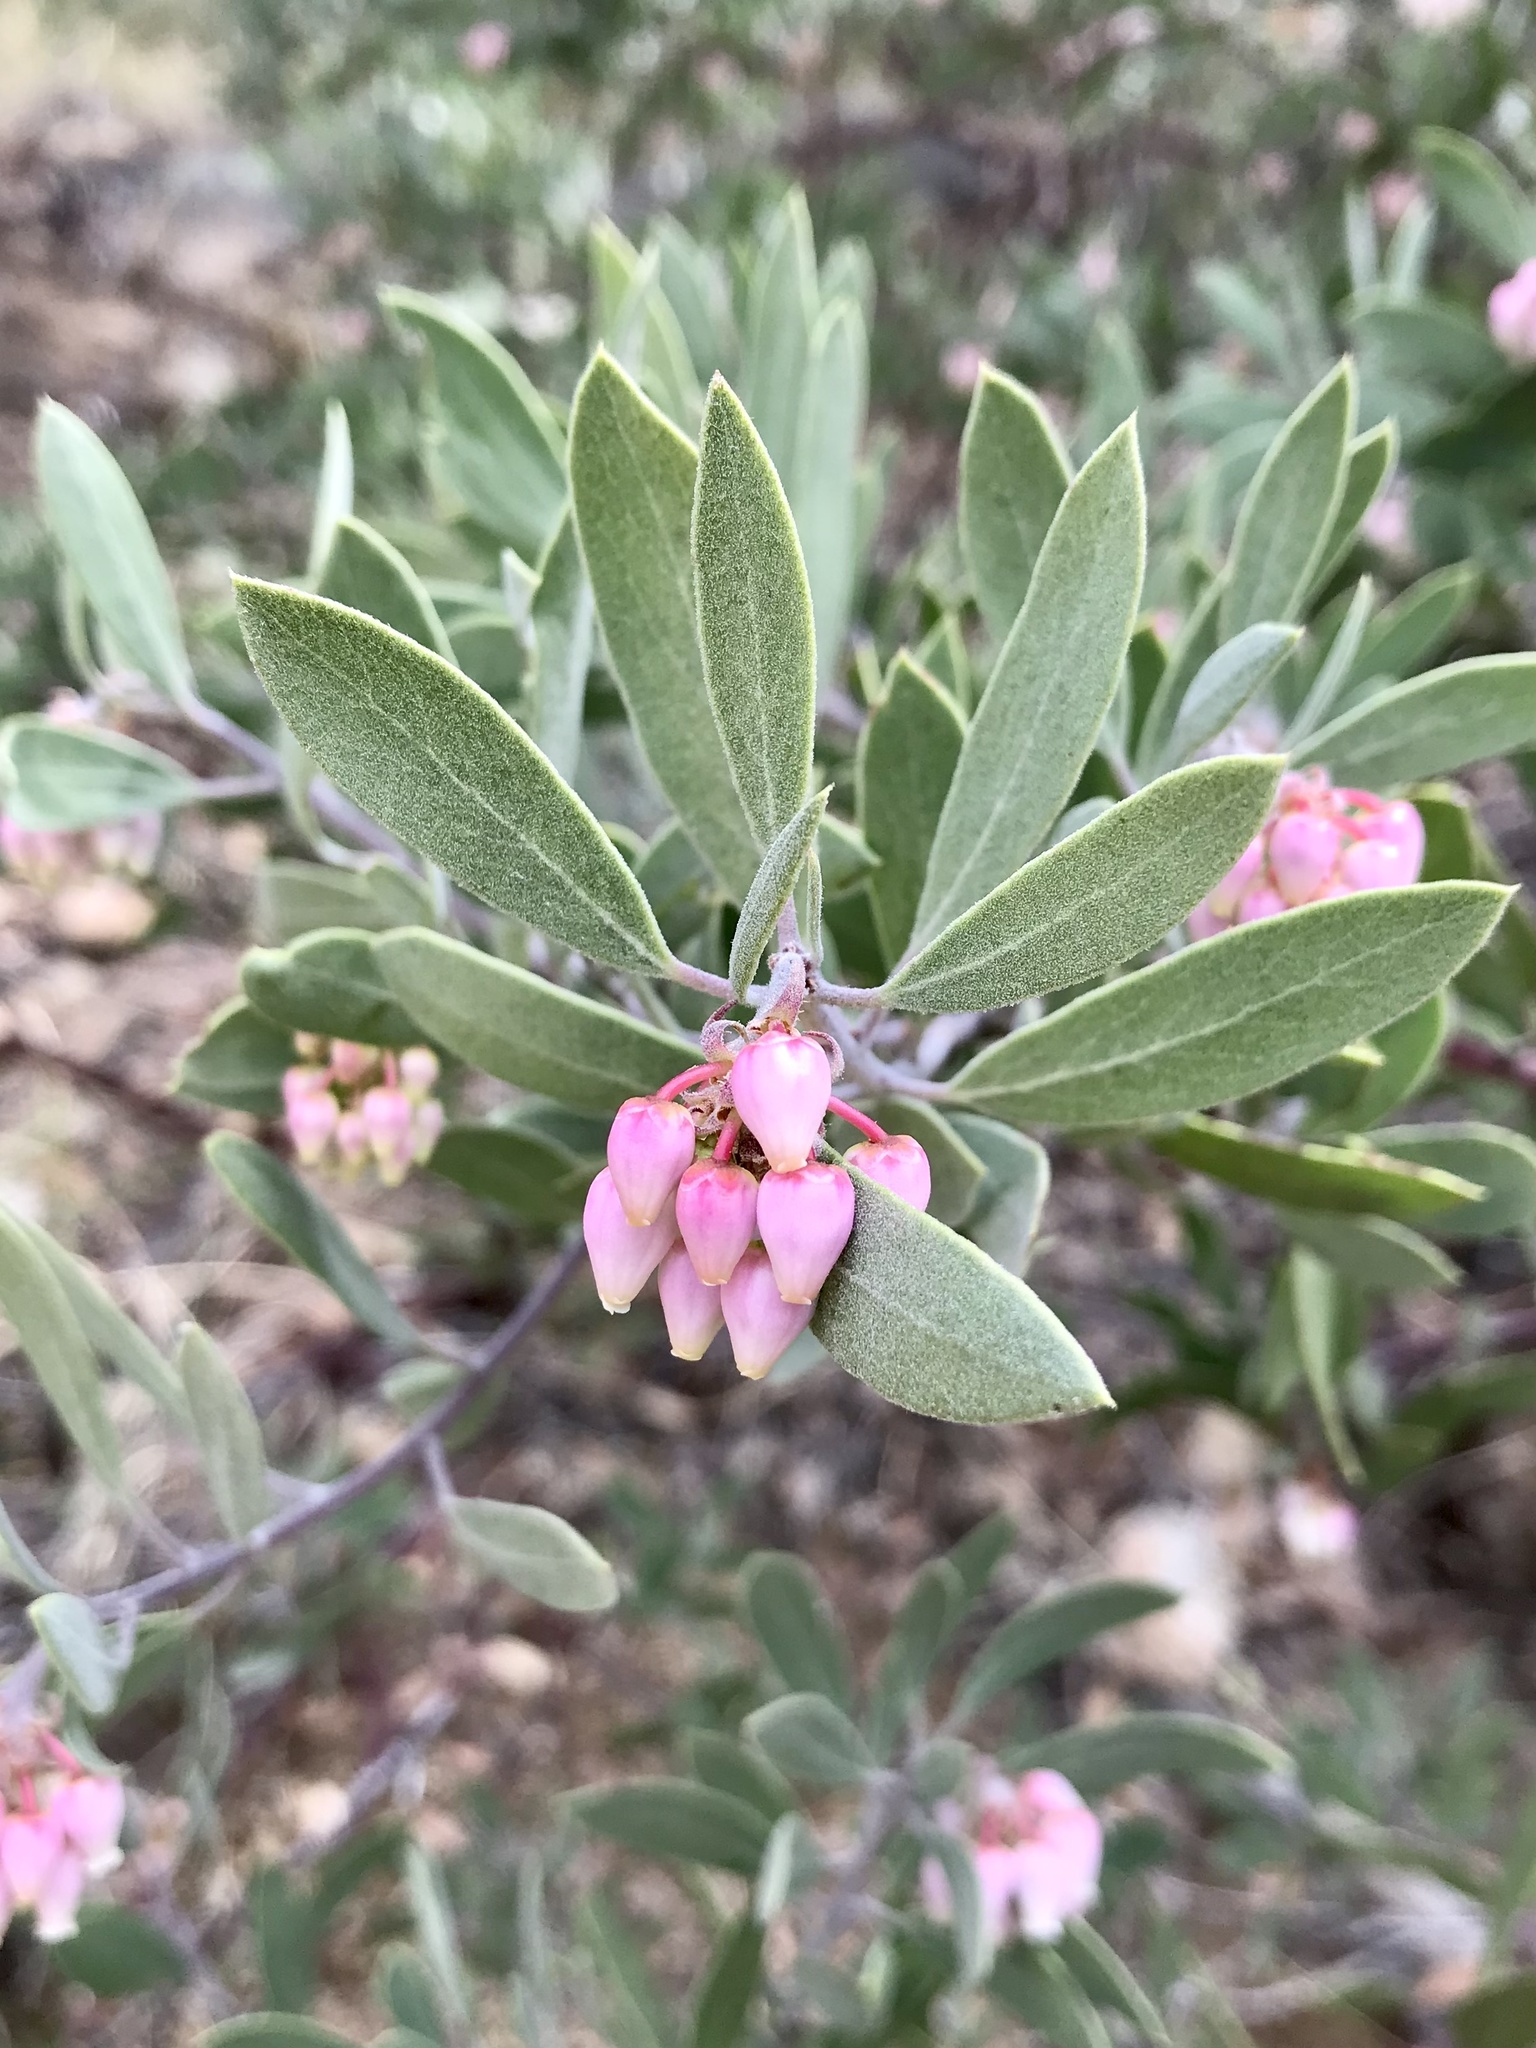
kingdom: Plantae
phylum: Tracheophyta
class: Magnoliopsida
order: Ericales
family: Ericaceae
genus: Arctostaphylos
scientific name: Arctostaphylos pungens
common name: Mexican manzanita
